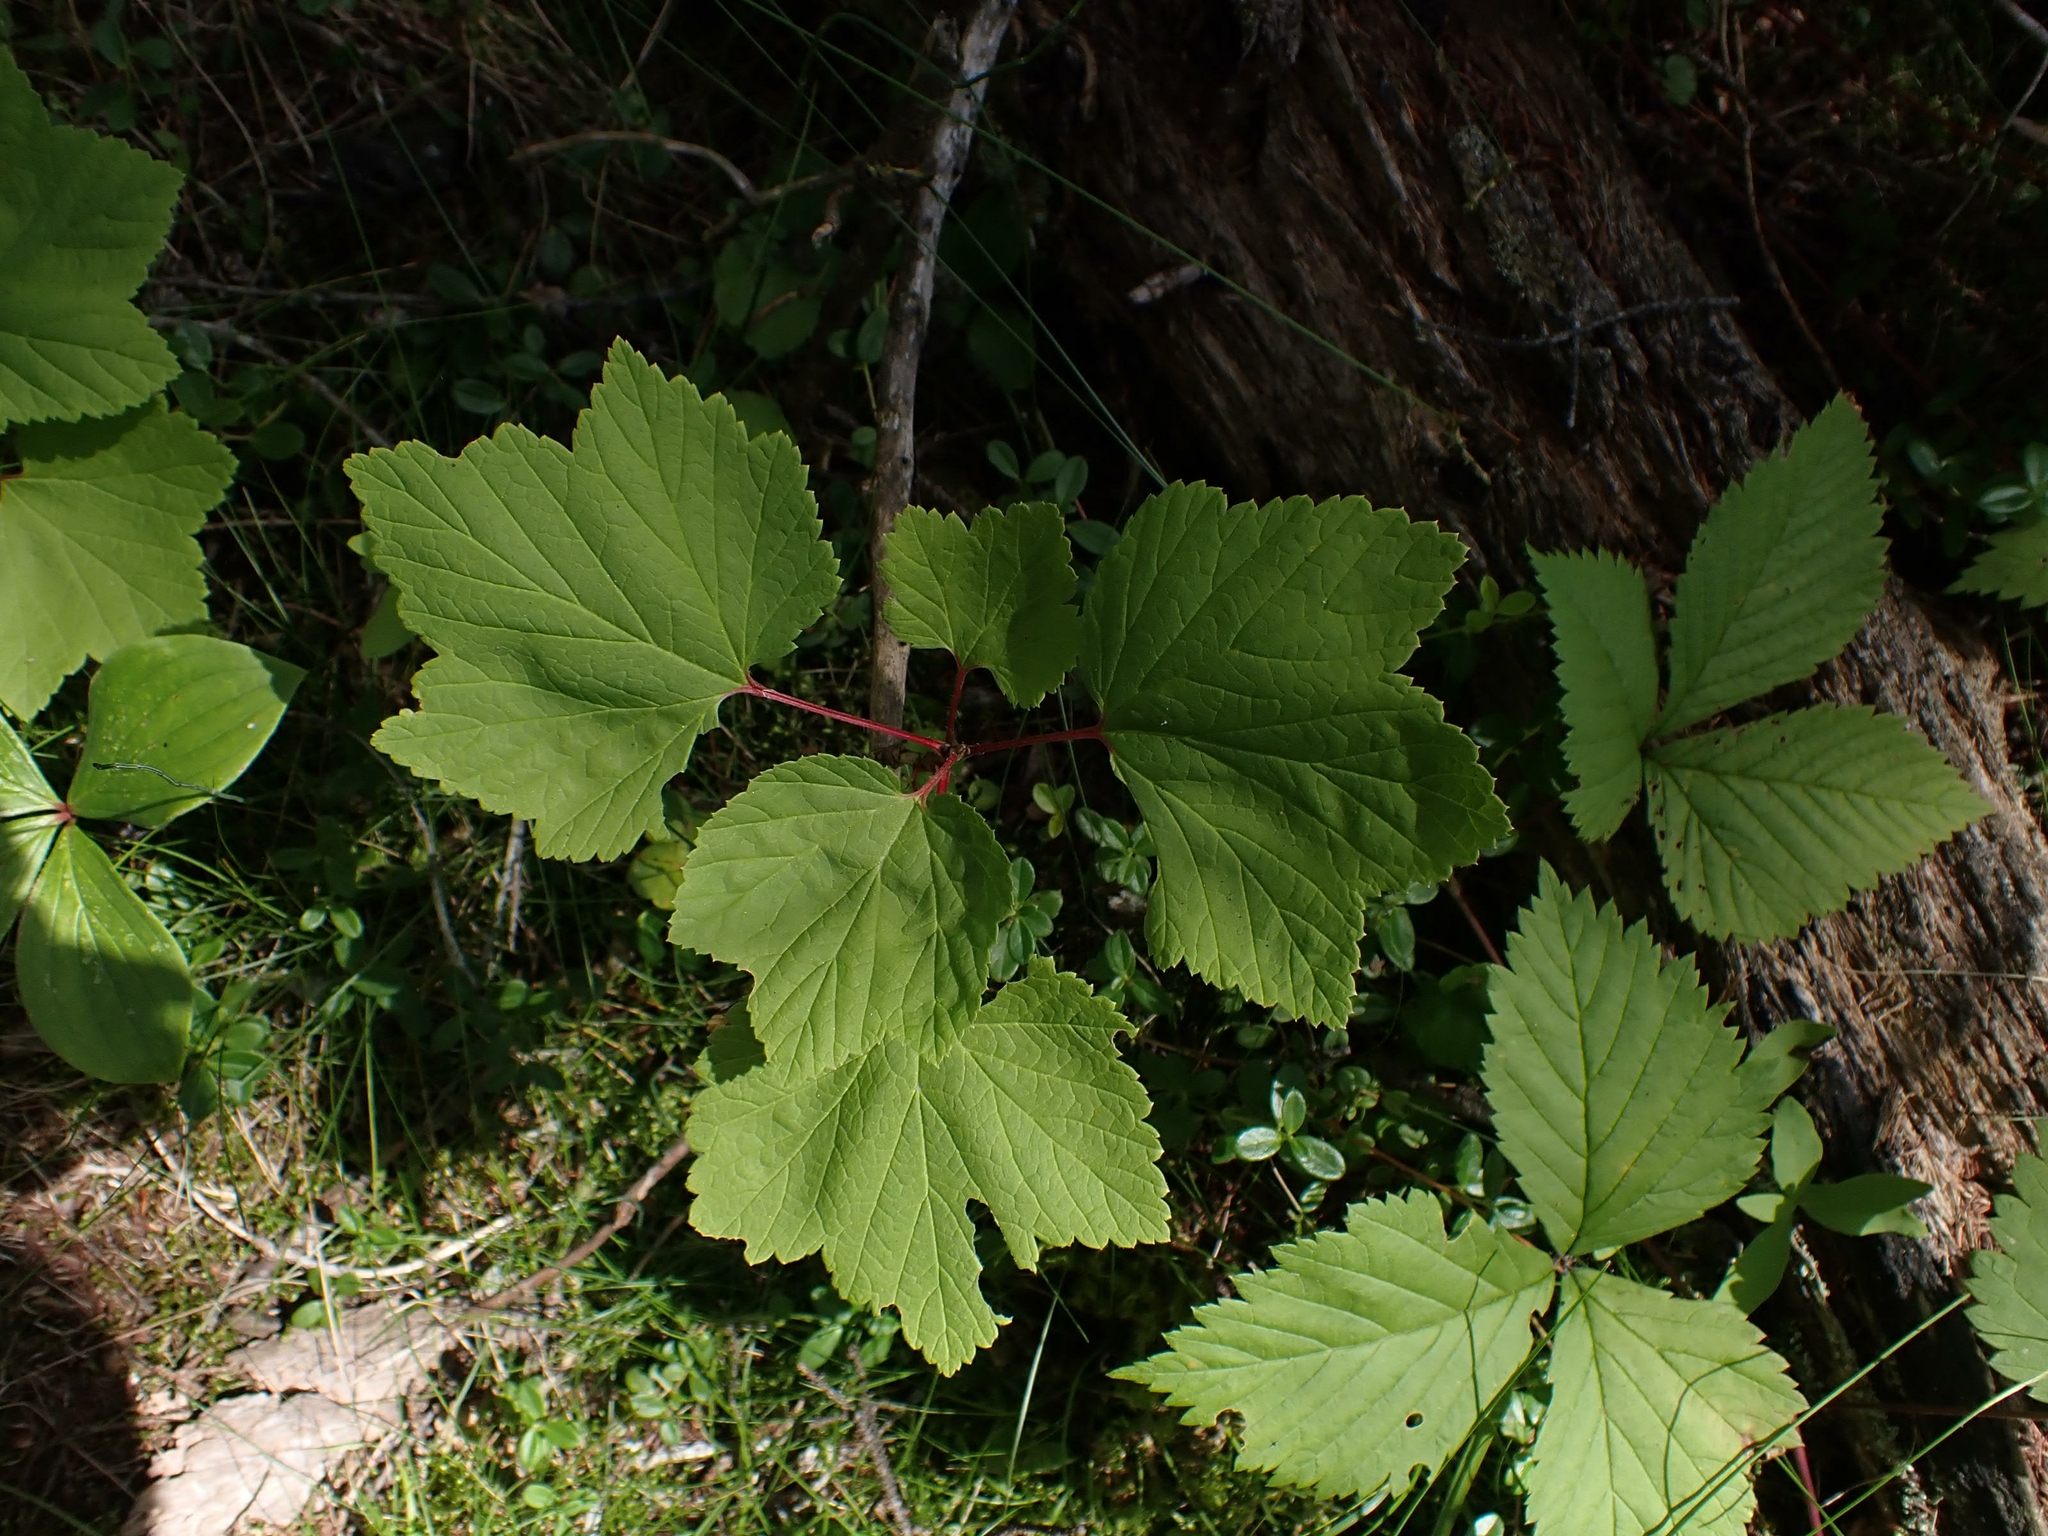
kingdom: Plantae
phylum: Tracheophyta
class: Magnoliopsida
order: Saxifragales
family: Grossulariaceae
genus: Ribes
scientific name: Ribes triste
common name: Swamp red currant
